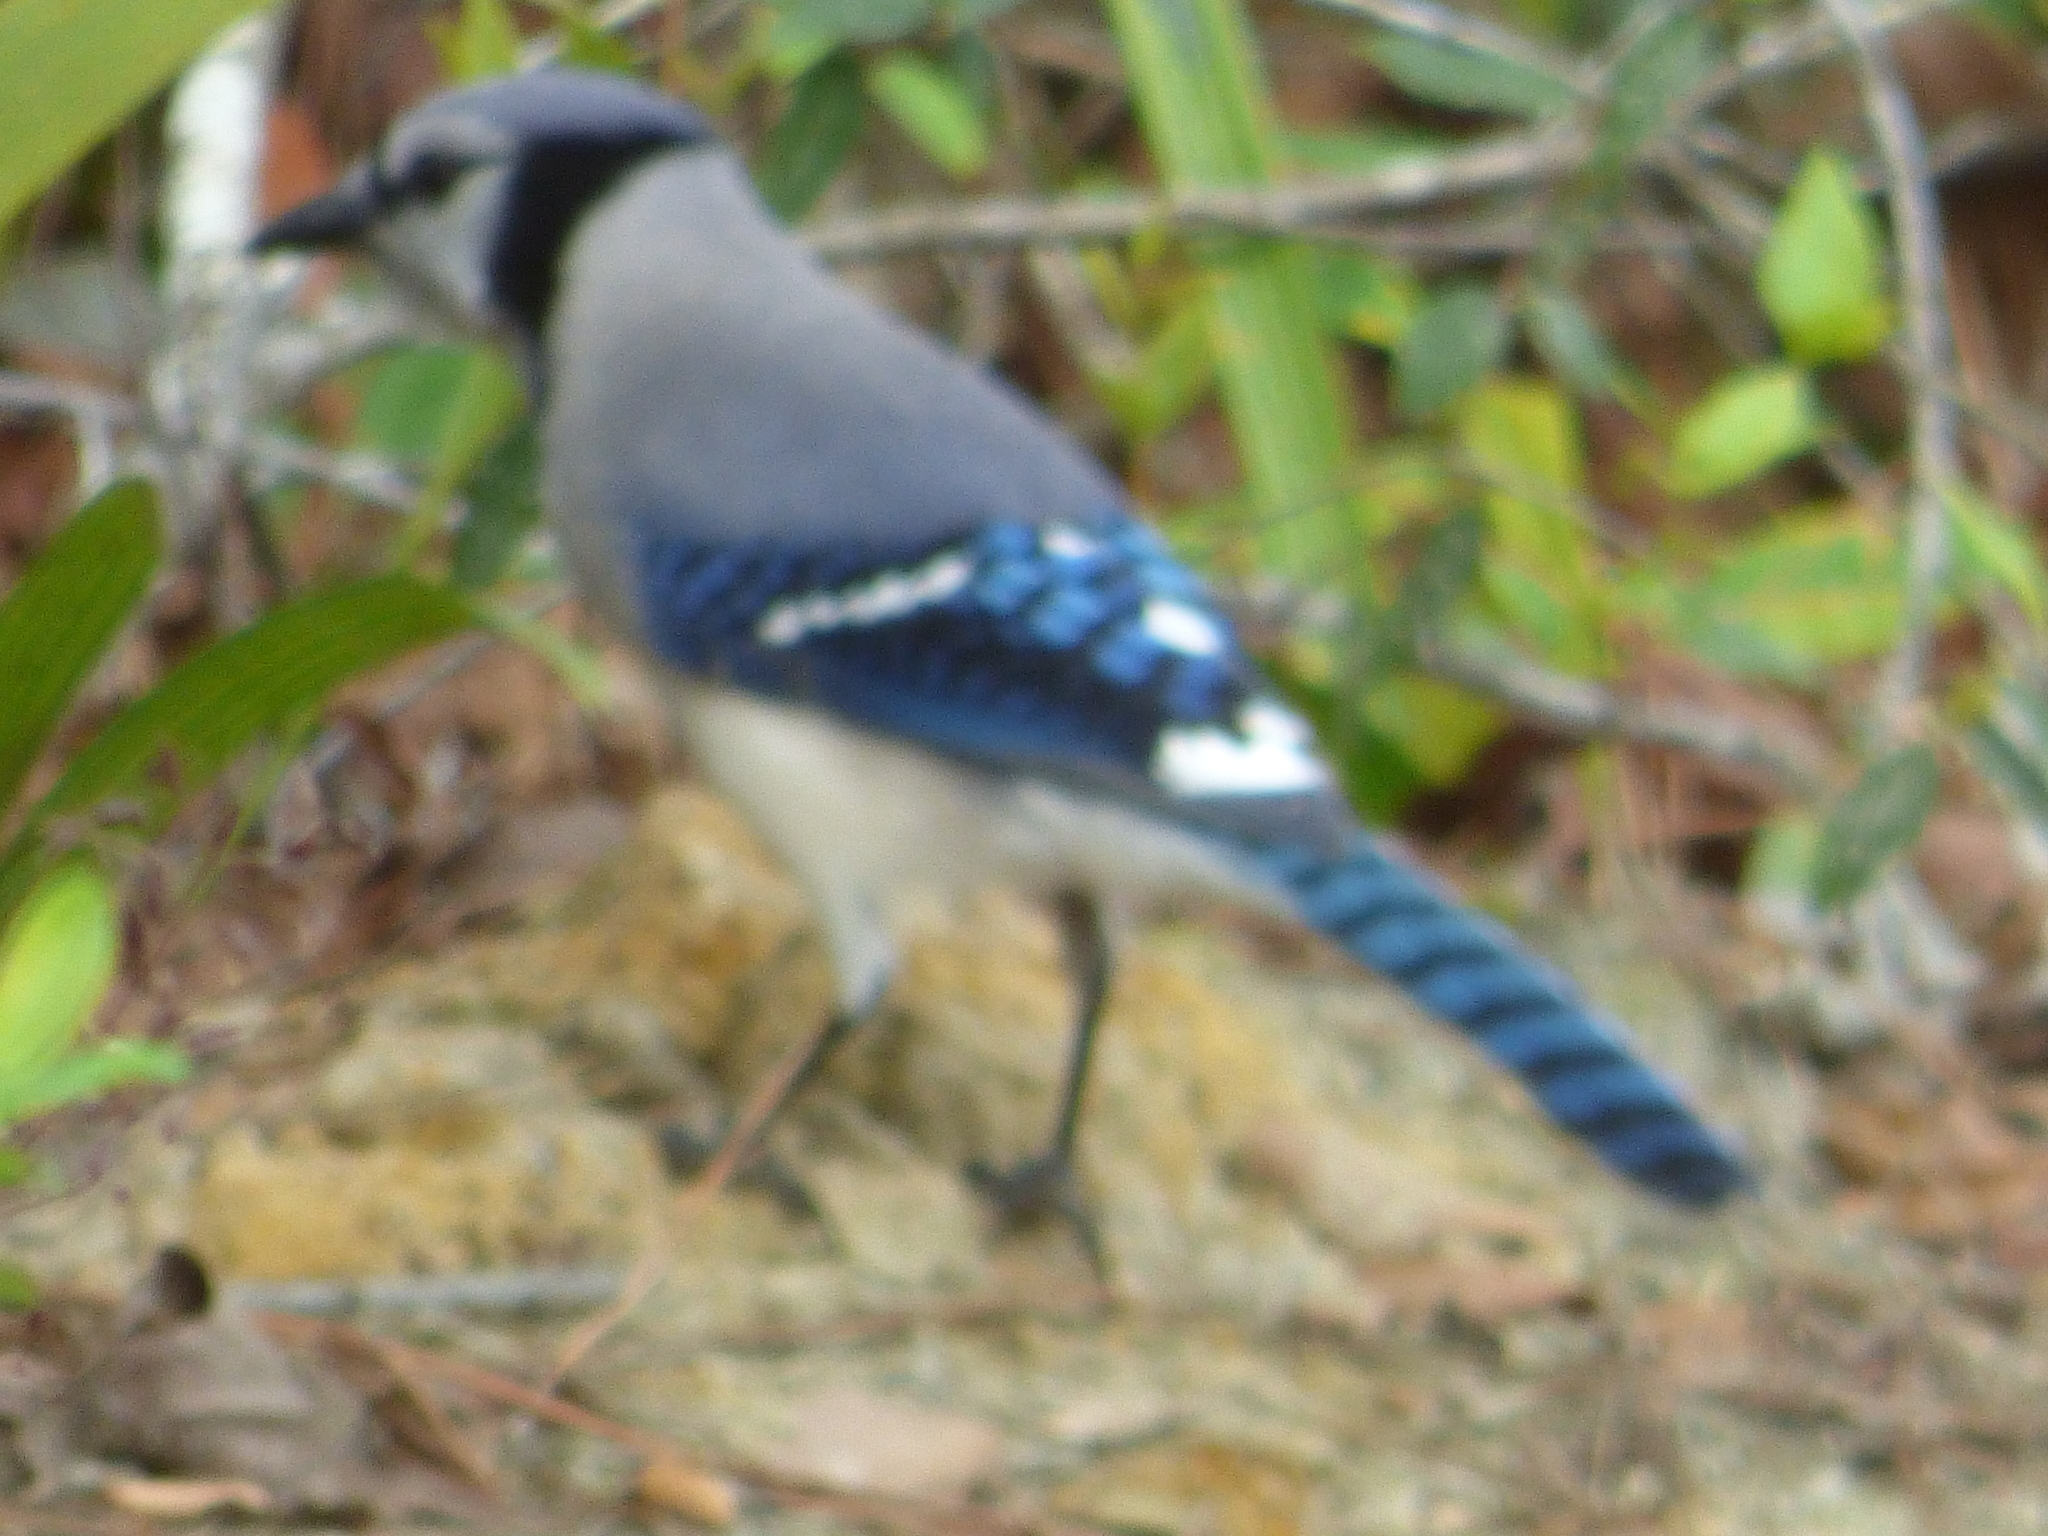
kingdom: Animalia
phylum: Chordata
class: Aves
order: Passeriformes
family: Corvidae
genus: Cyanocitta
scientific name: Cyanocitta cristata
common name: Blue jay
